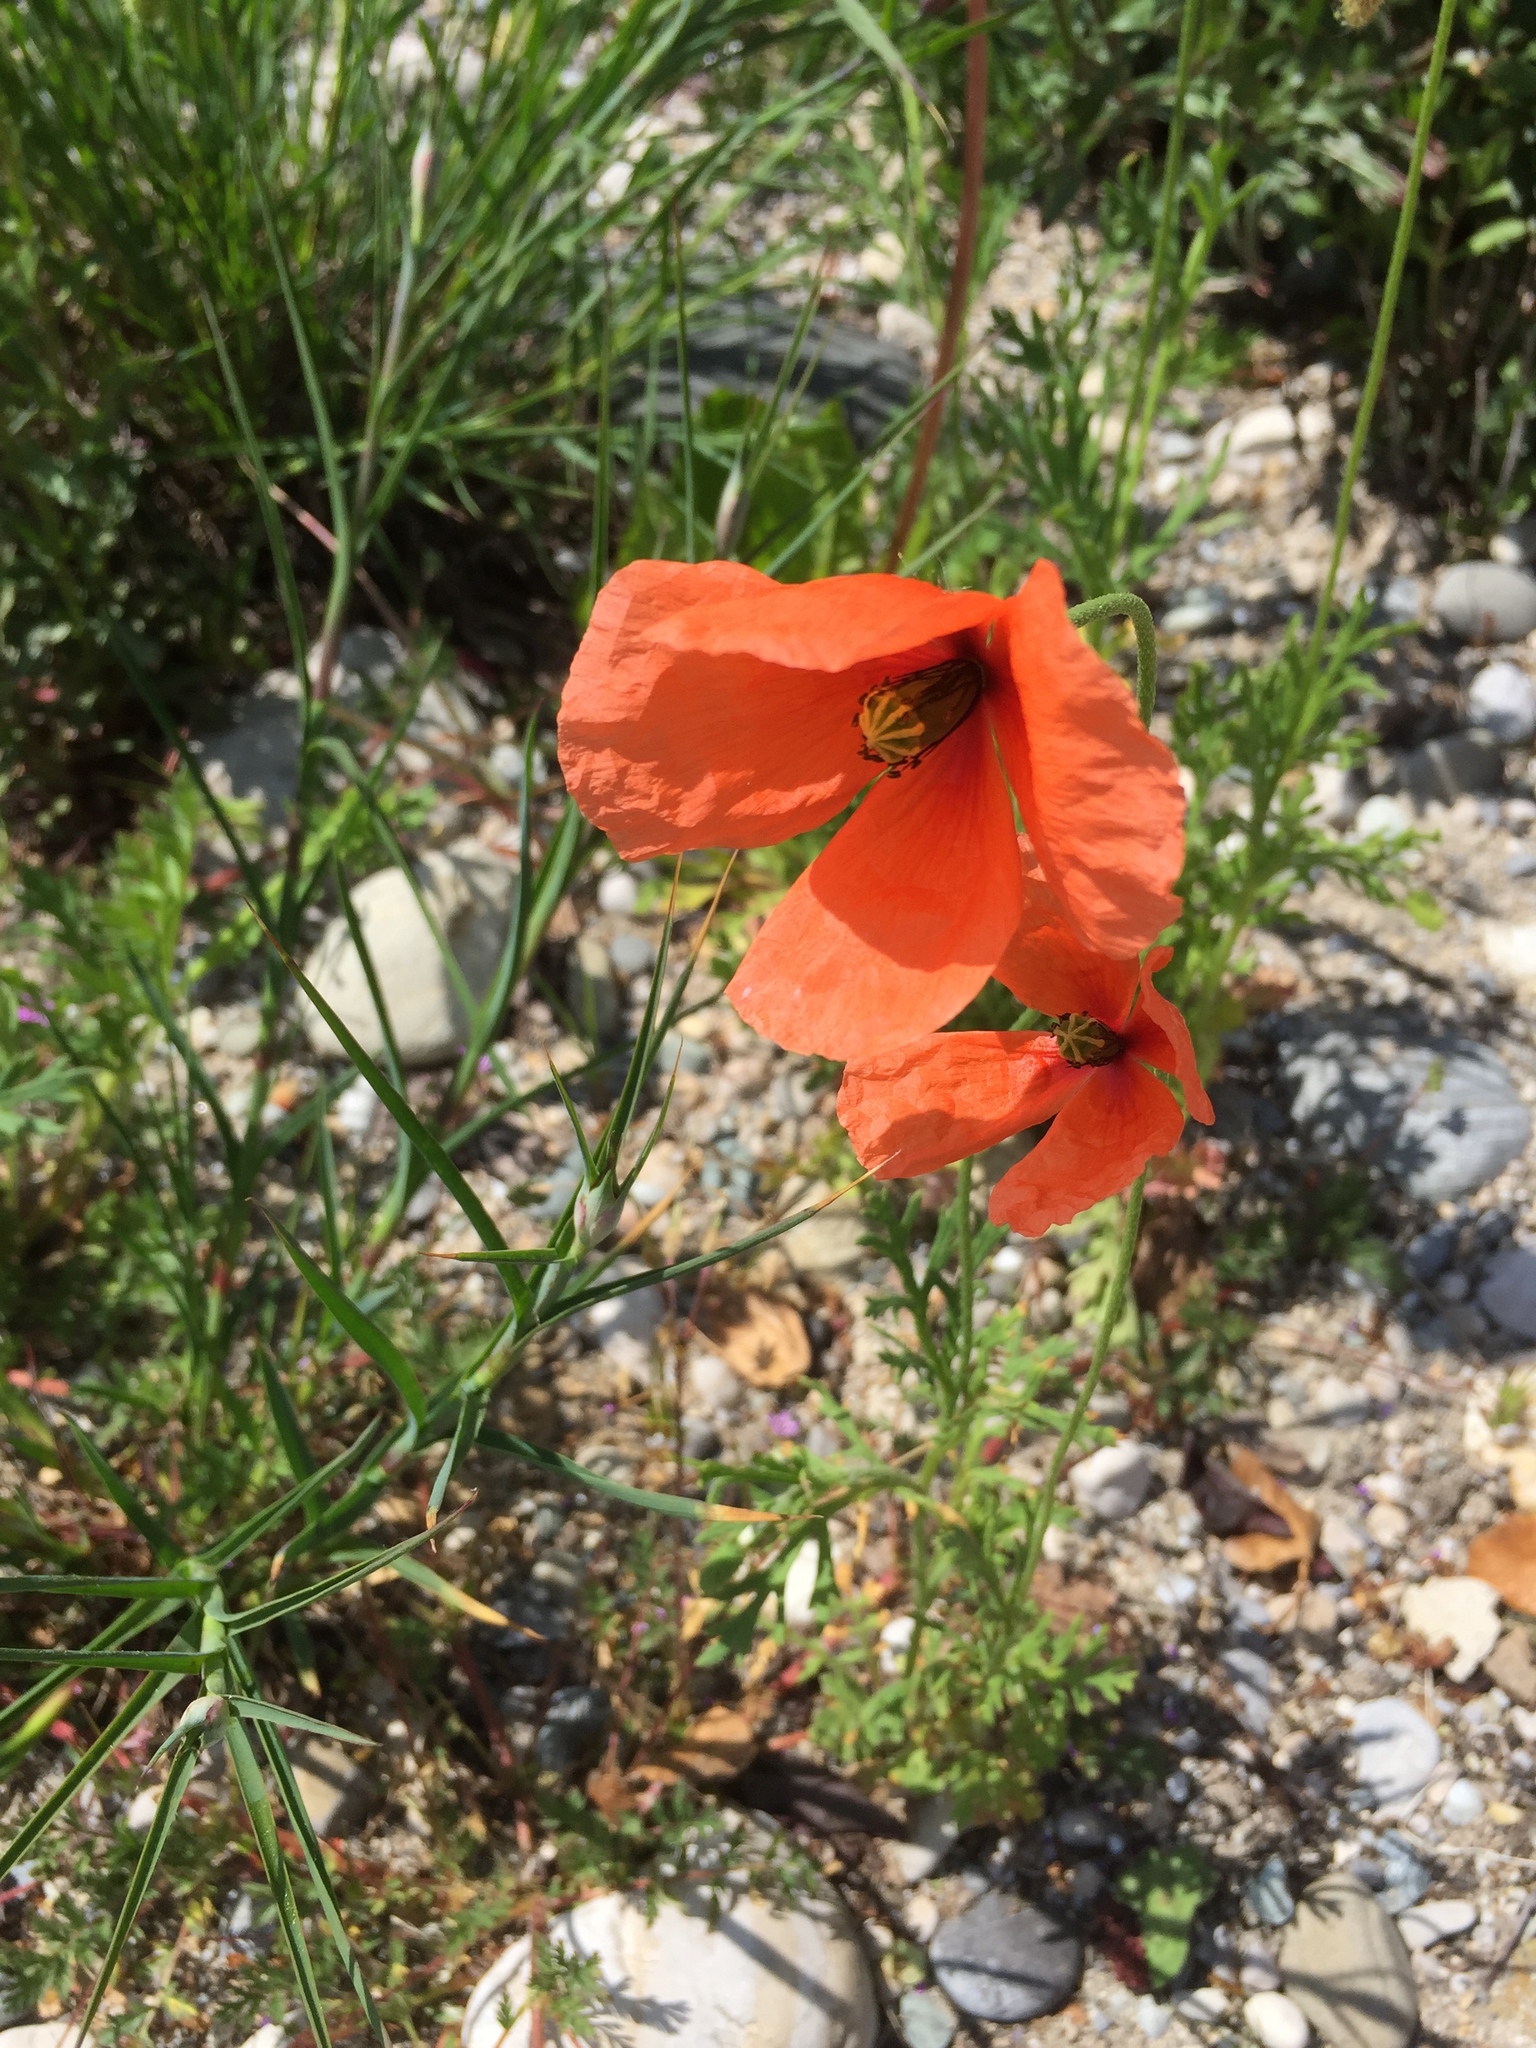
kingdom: Plantae
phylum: Tracheophyta
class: Magnoliopsida
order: Ranunculales
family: Papaveraceae
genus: Papaver
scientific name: Papaver dubium
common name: Long-headed poppy
